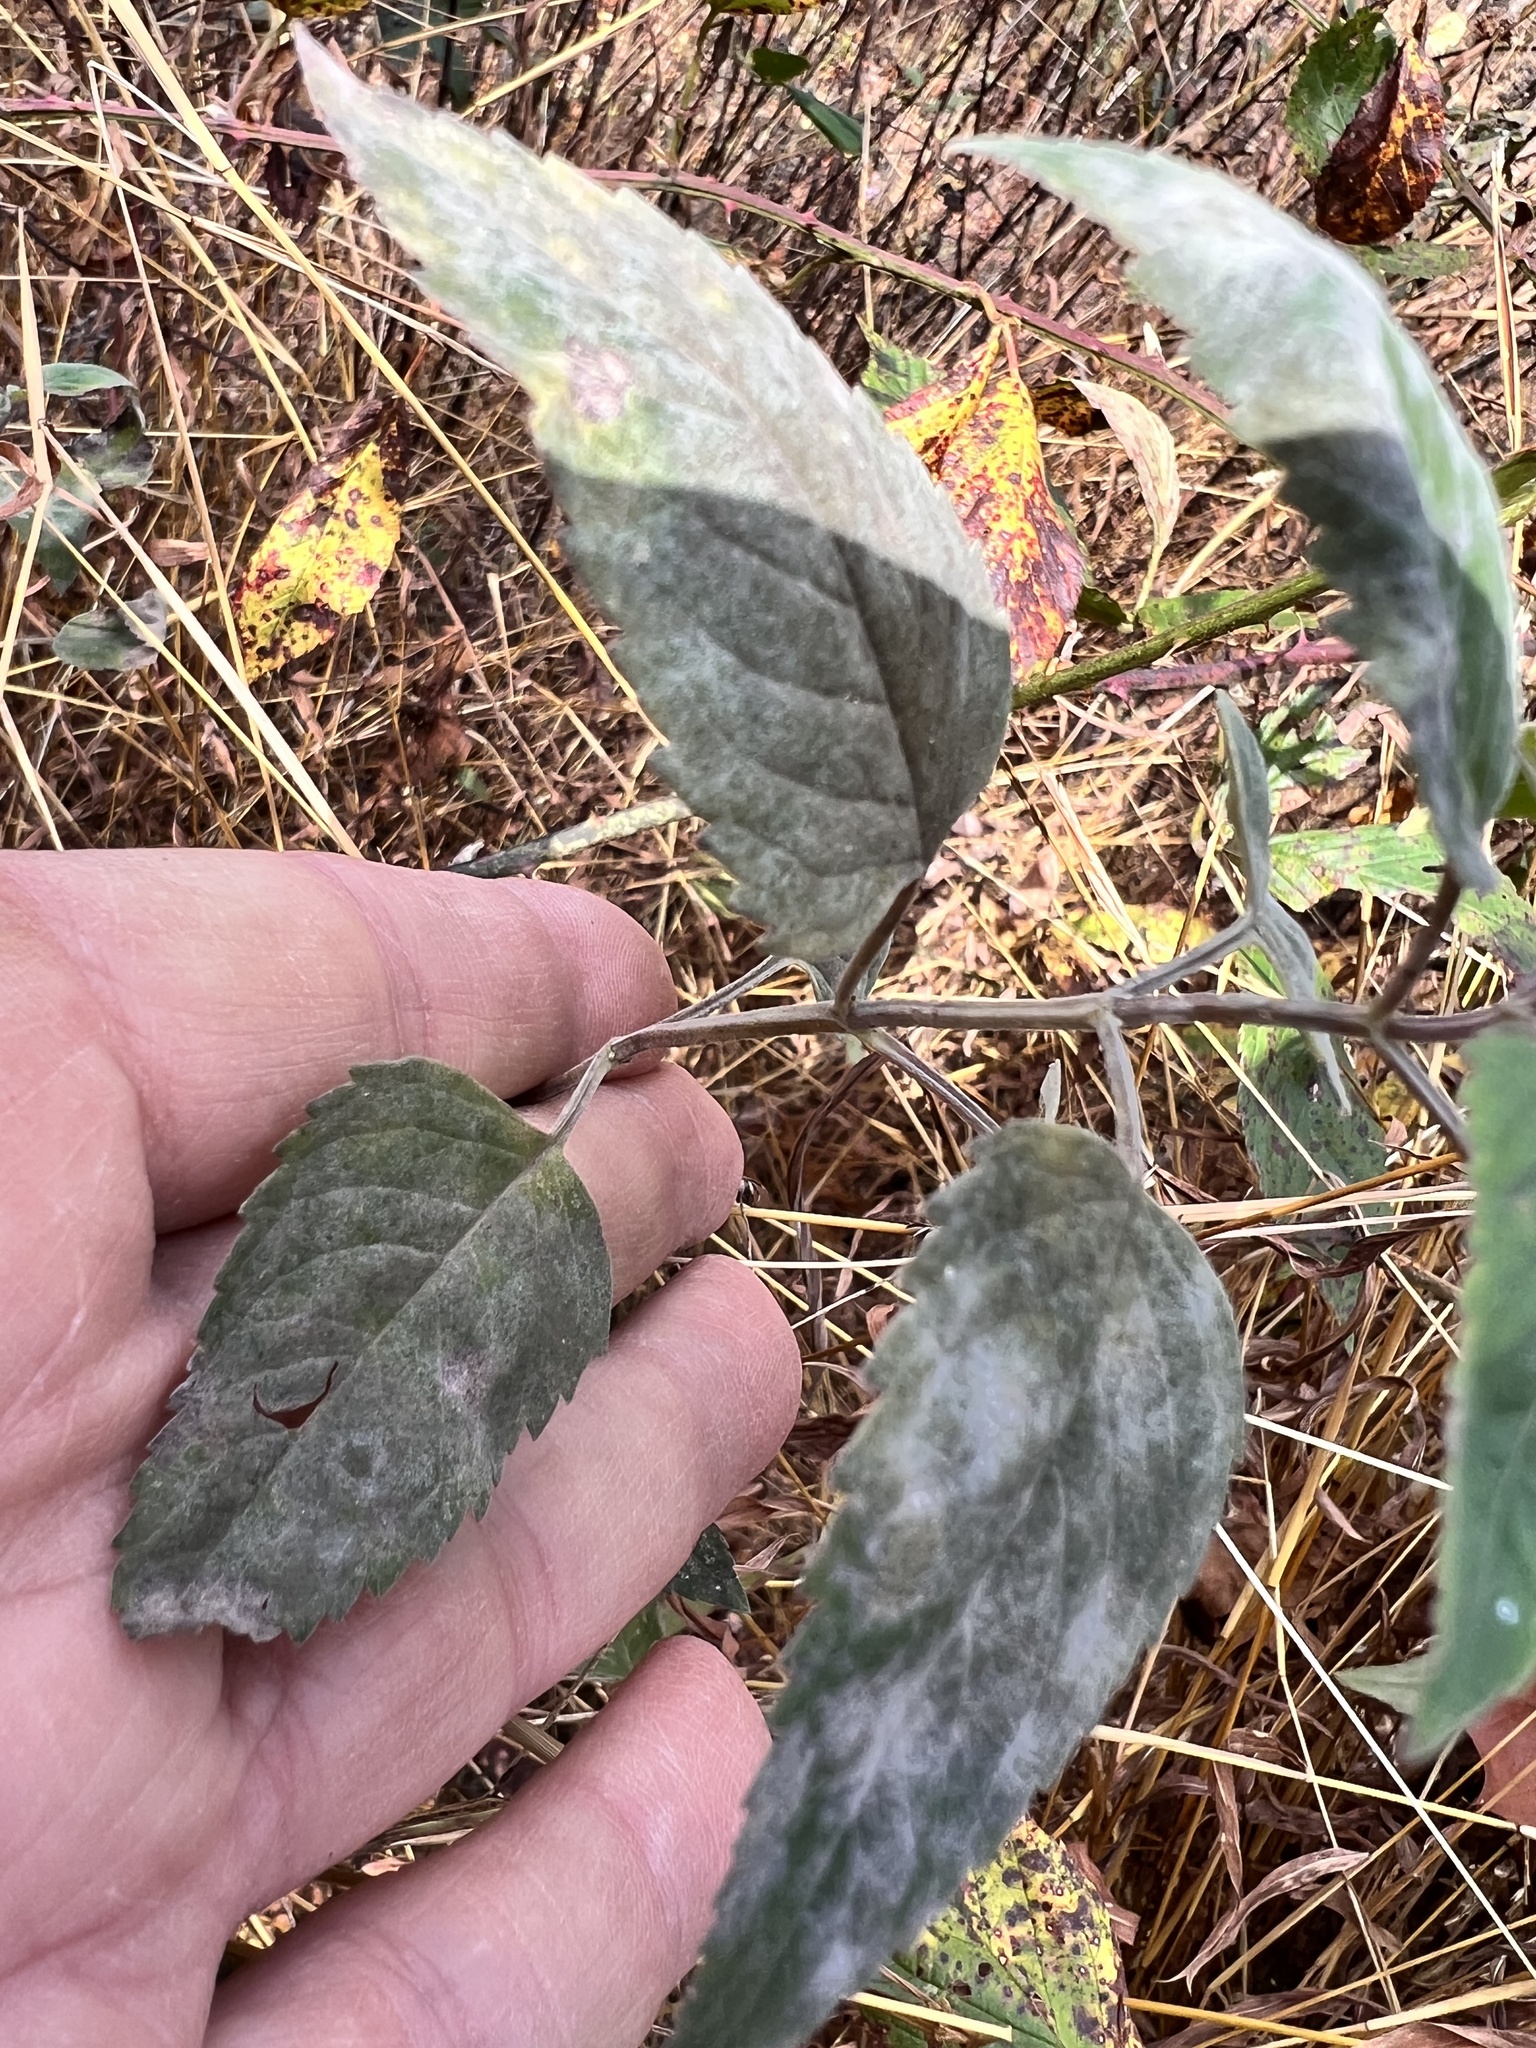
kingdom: Fungi
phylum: Ascomycota
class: Leotiomycetes
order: Helotiales
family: Erysiphaceae
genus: Golovinomyces
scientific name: Golovinomyces monardae
